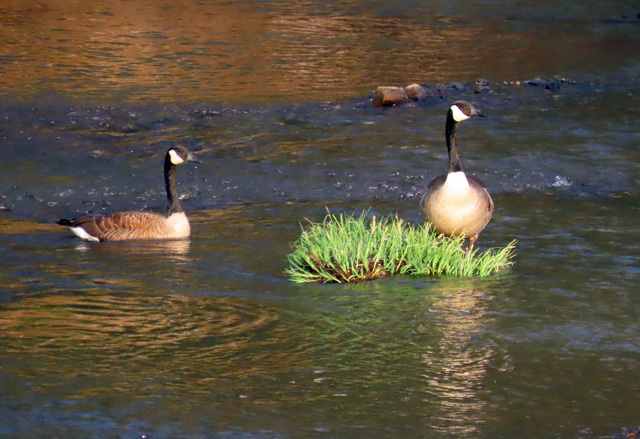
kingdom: Animalia
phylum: Chordata
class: Aves
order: Anseriformes
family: Anatidae
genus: Branta
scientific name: Branta canadensis
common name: Canada goose
